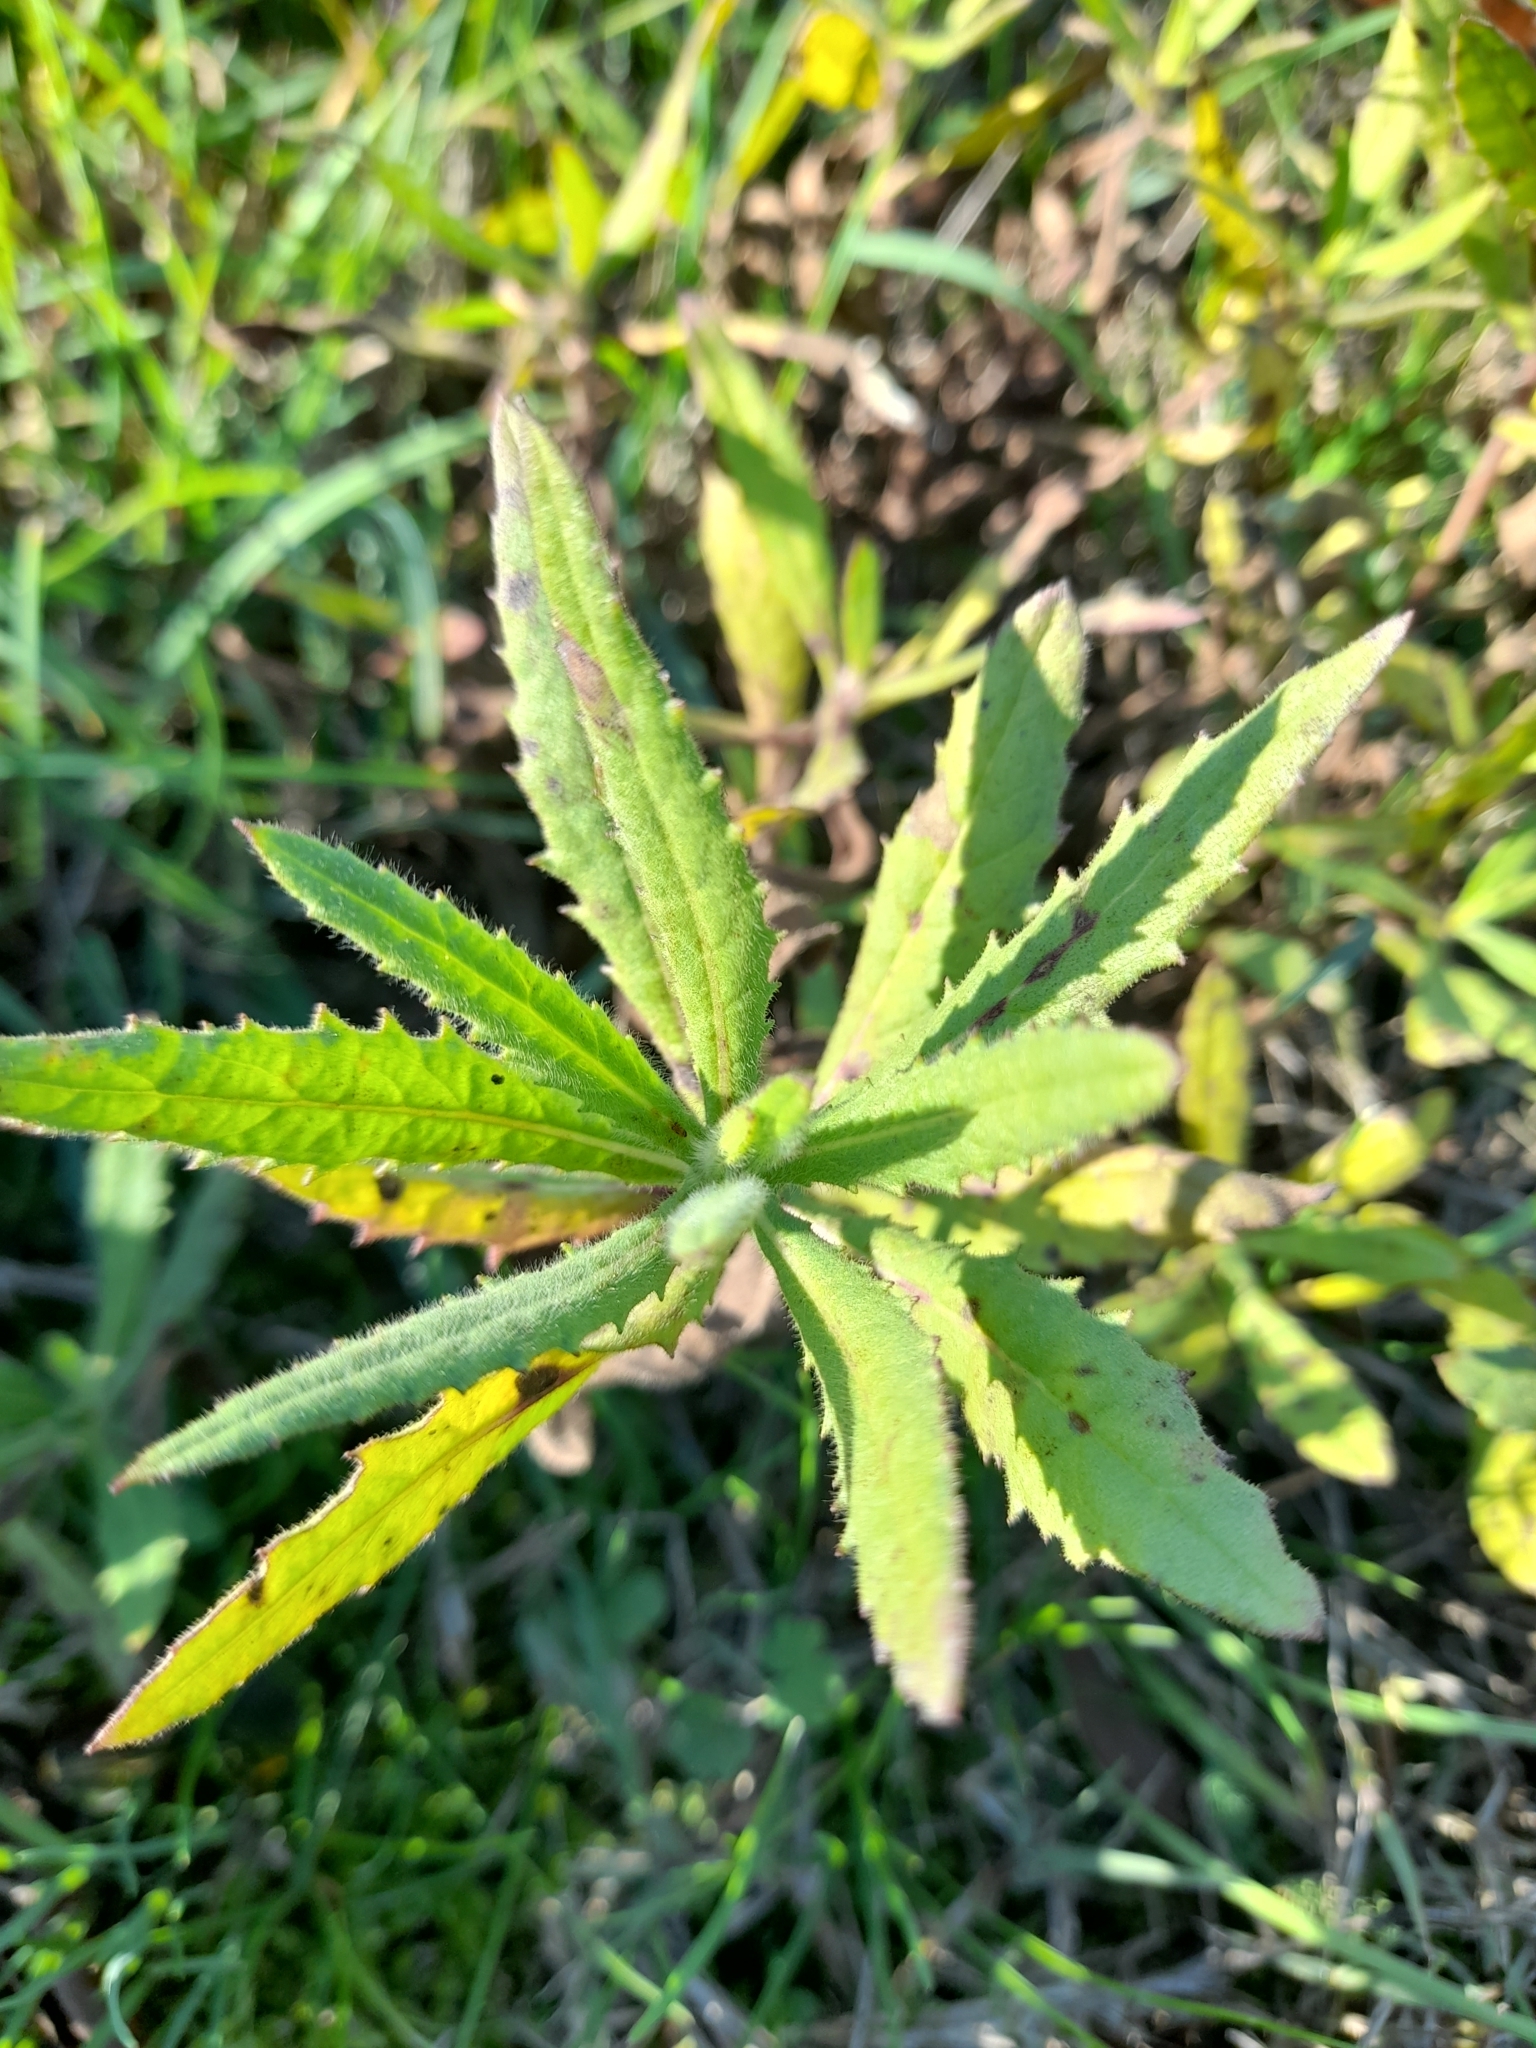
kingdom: Plantae
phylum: Tracheophyta
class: Magnoliopsida
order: Asterales
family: Asteraceae
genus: Dittrichia
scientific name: Dittrichia viscosa
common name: Woody fleabane
